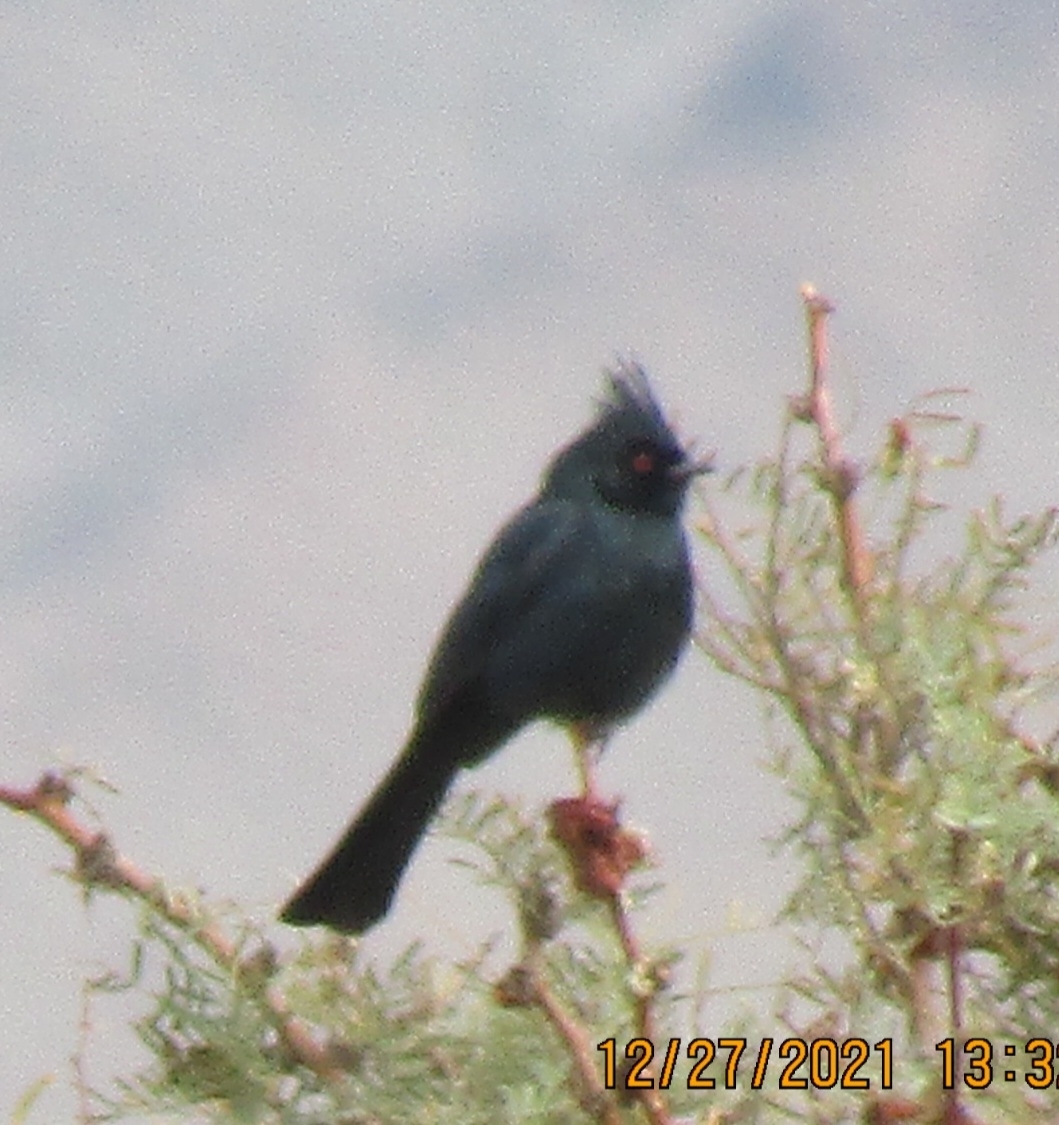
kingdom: Animalia
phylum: Chordata
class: Aves
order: Passeriformes
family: Ptilogonatidae
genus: Phainopepla
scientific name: Phainopepla nitens
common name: Phainopepla
